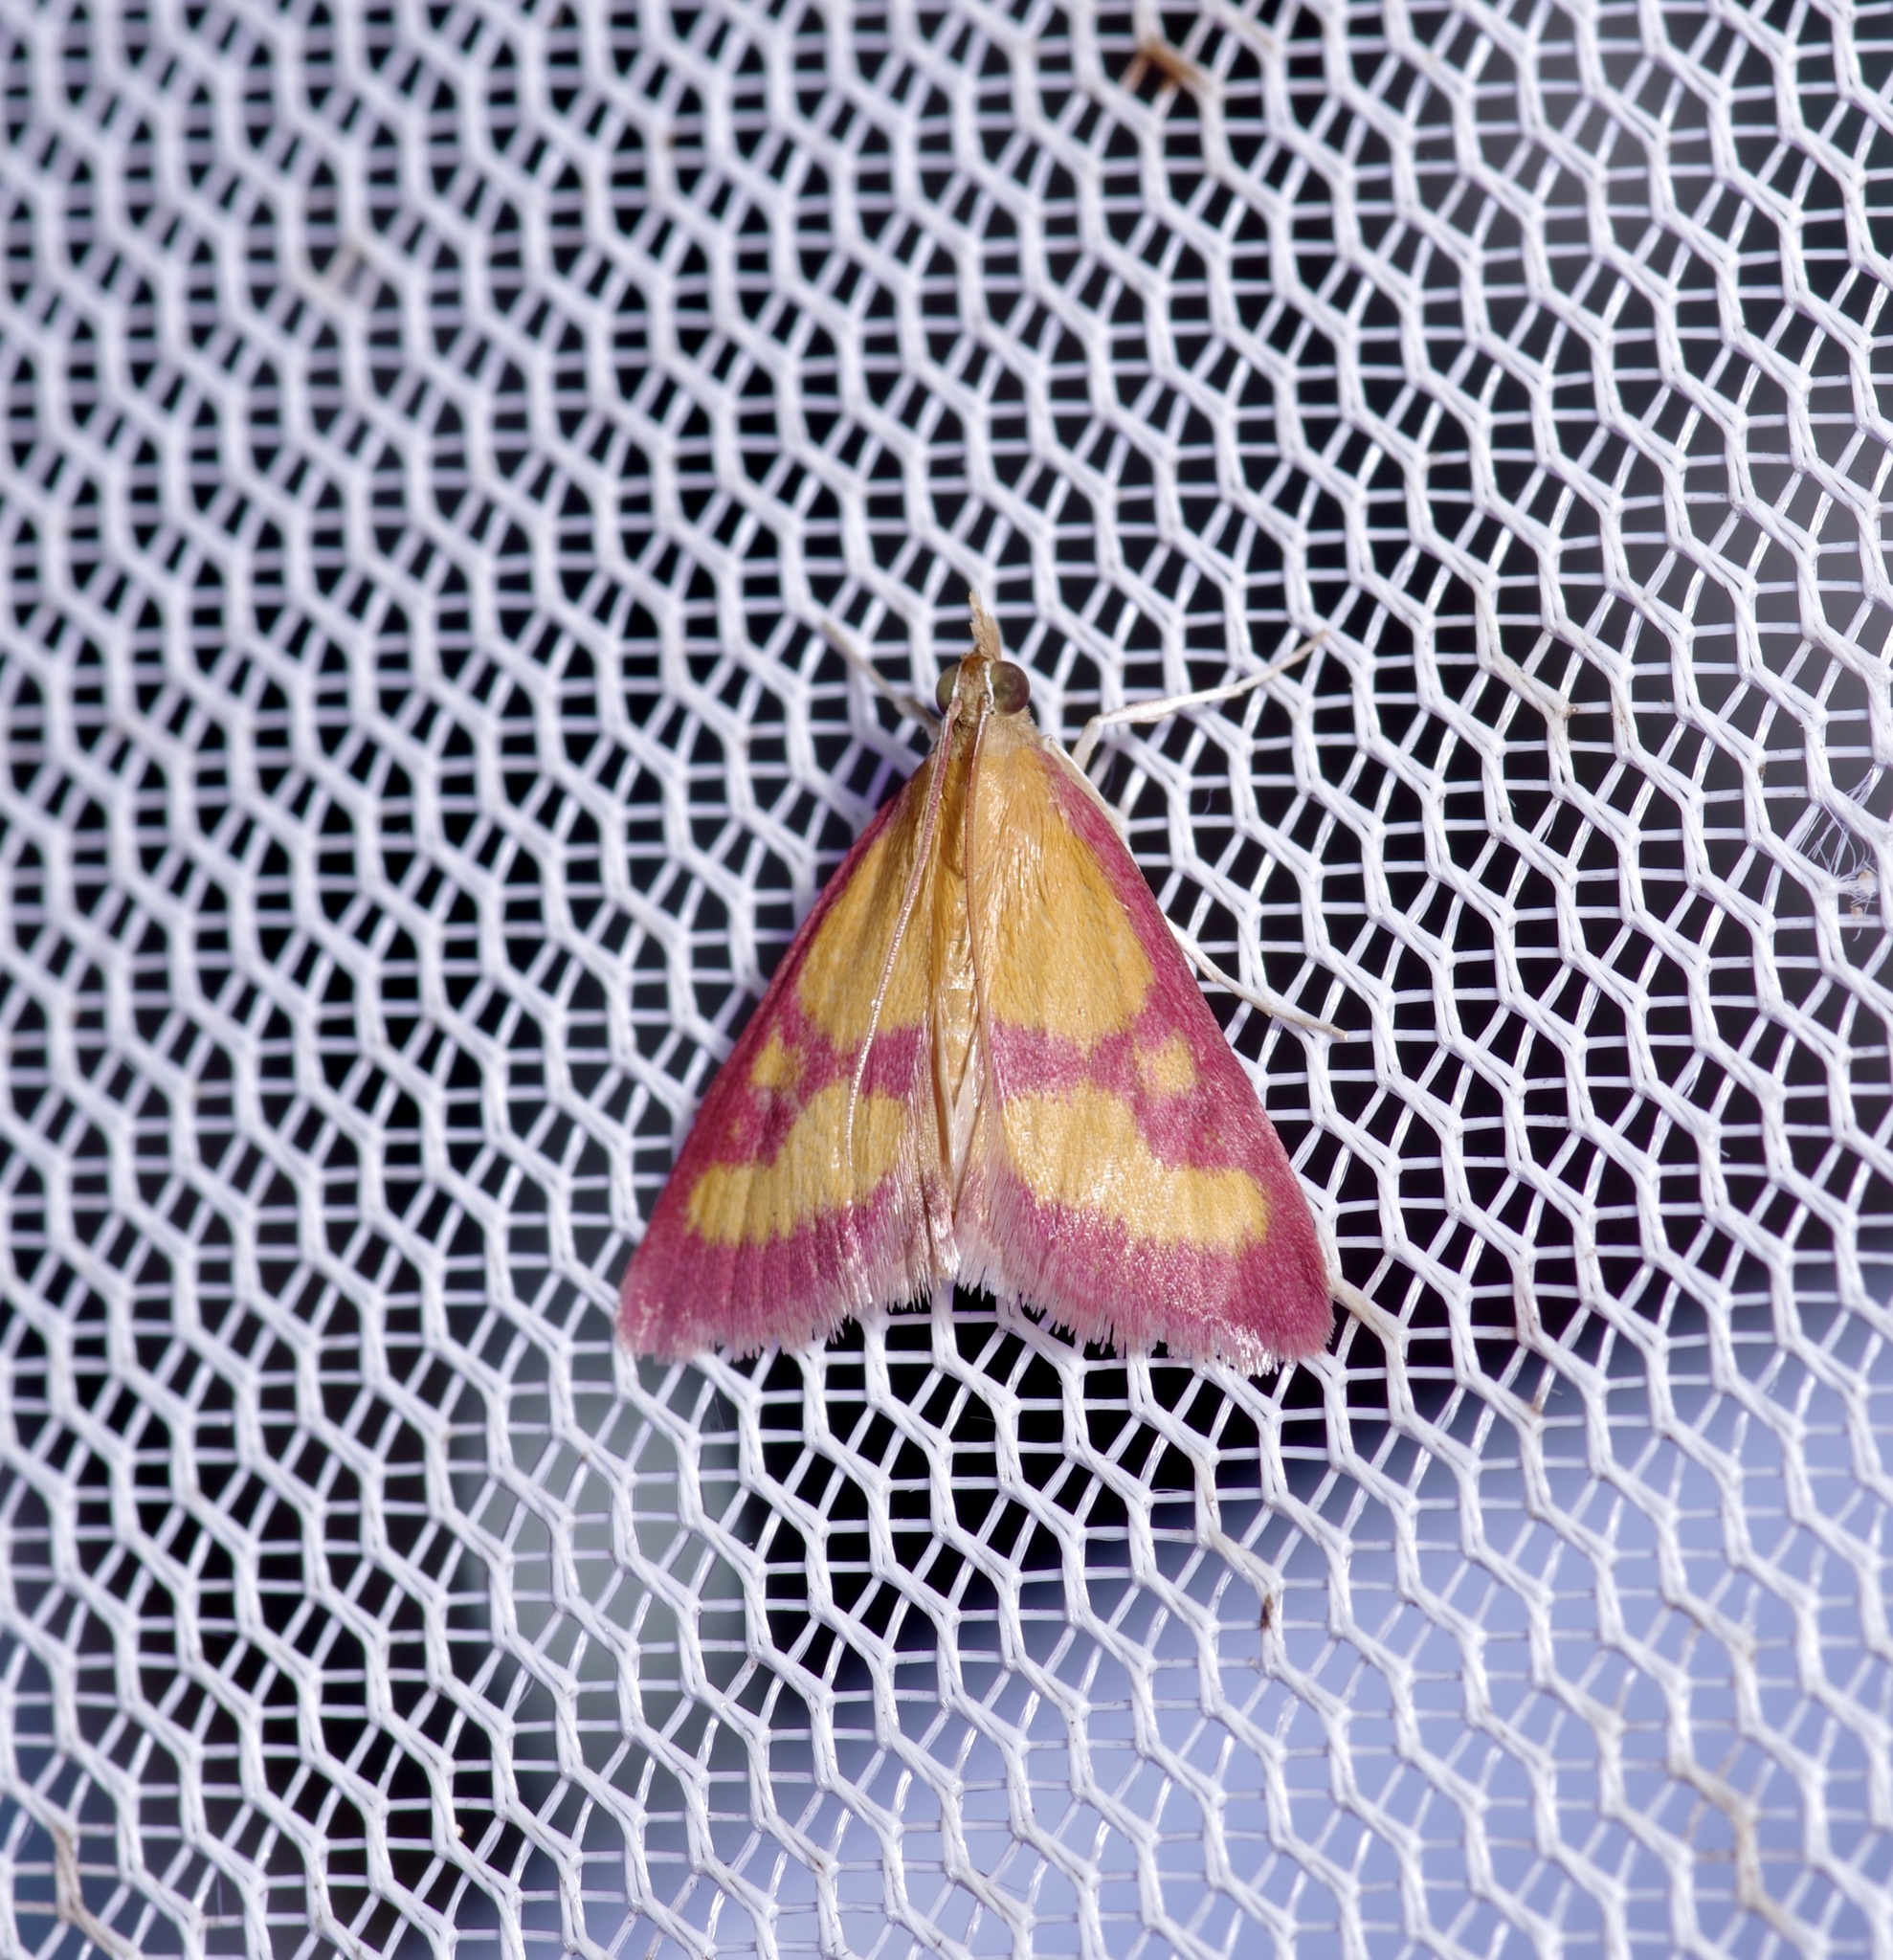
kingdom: Animalia
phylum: Arthropoda
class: Insecta
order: Lepidoptera
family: Crambidae
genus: Pyrausta
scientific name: Pyrausta laticlavia
